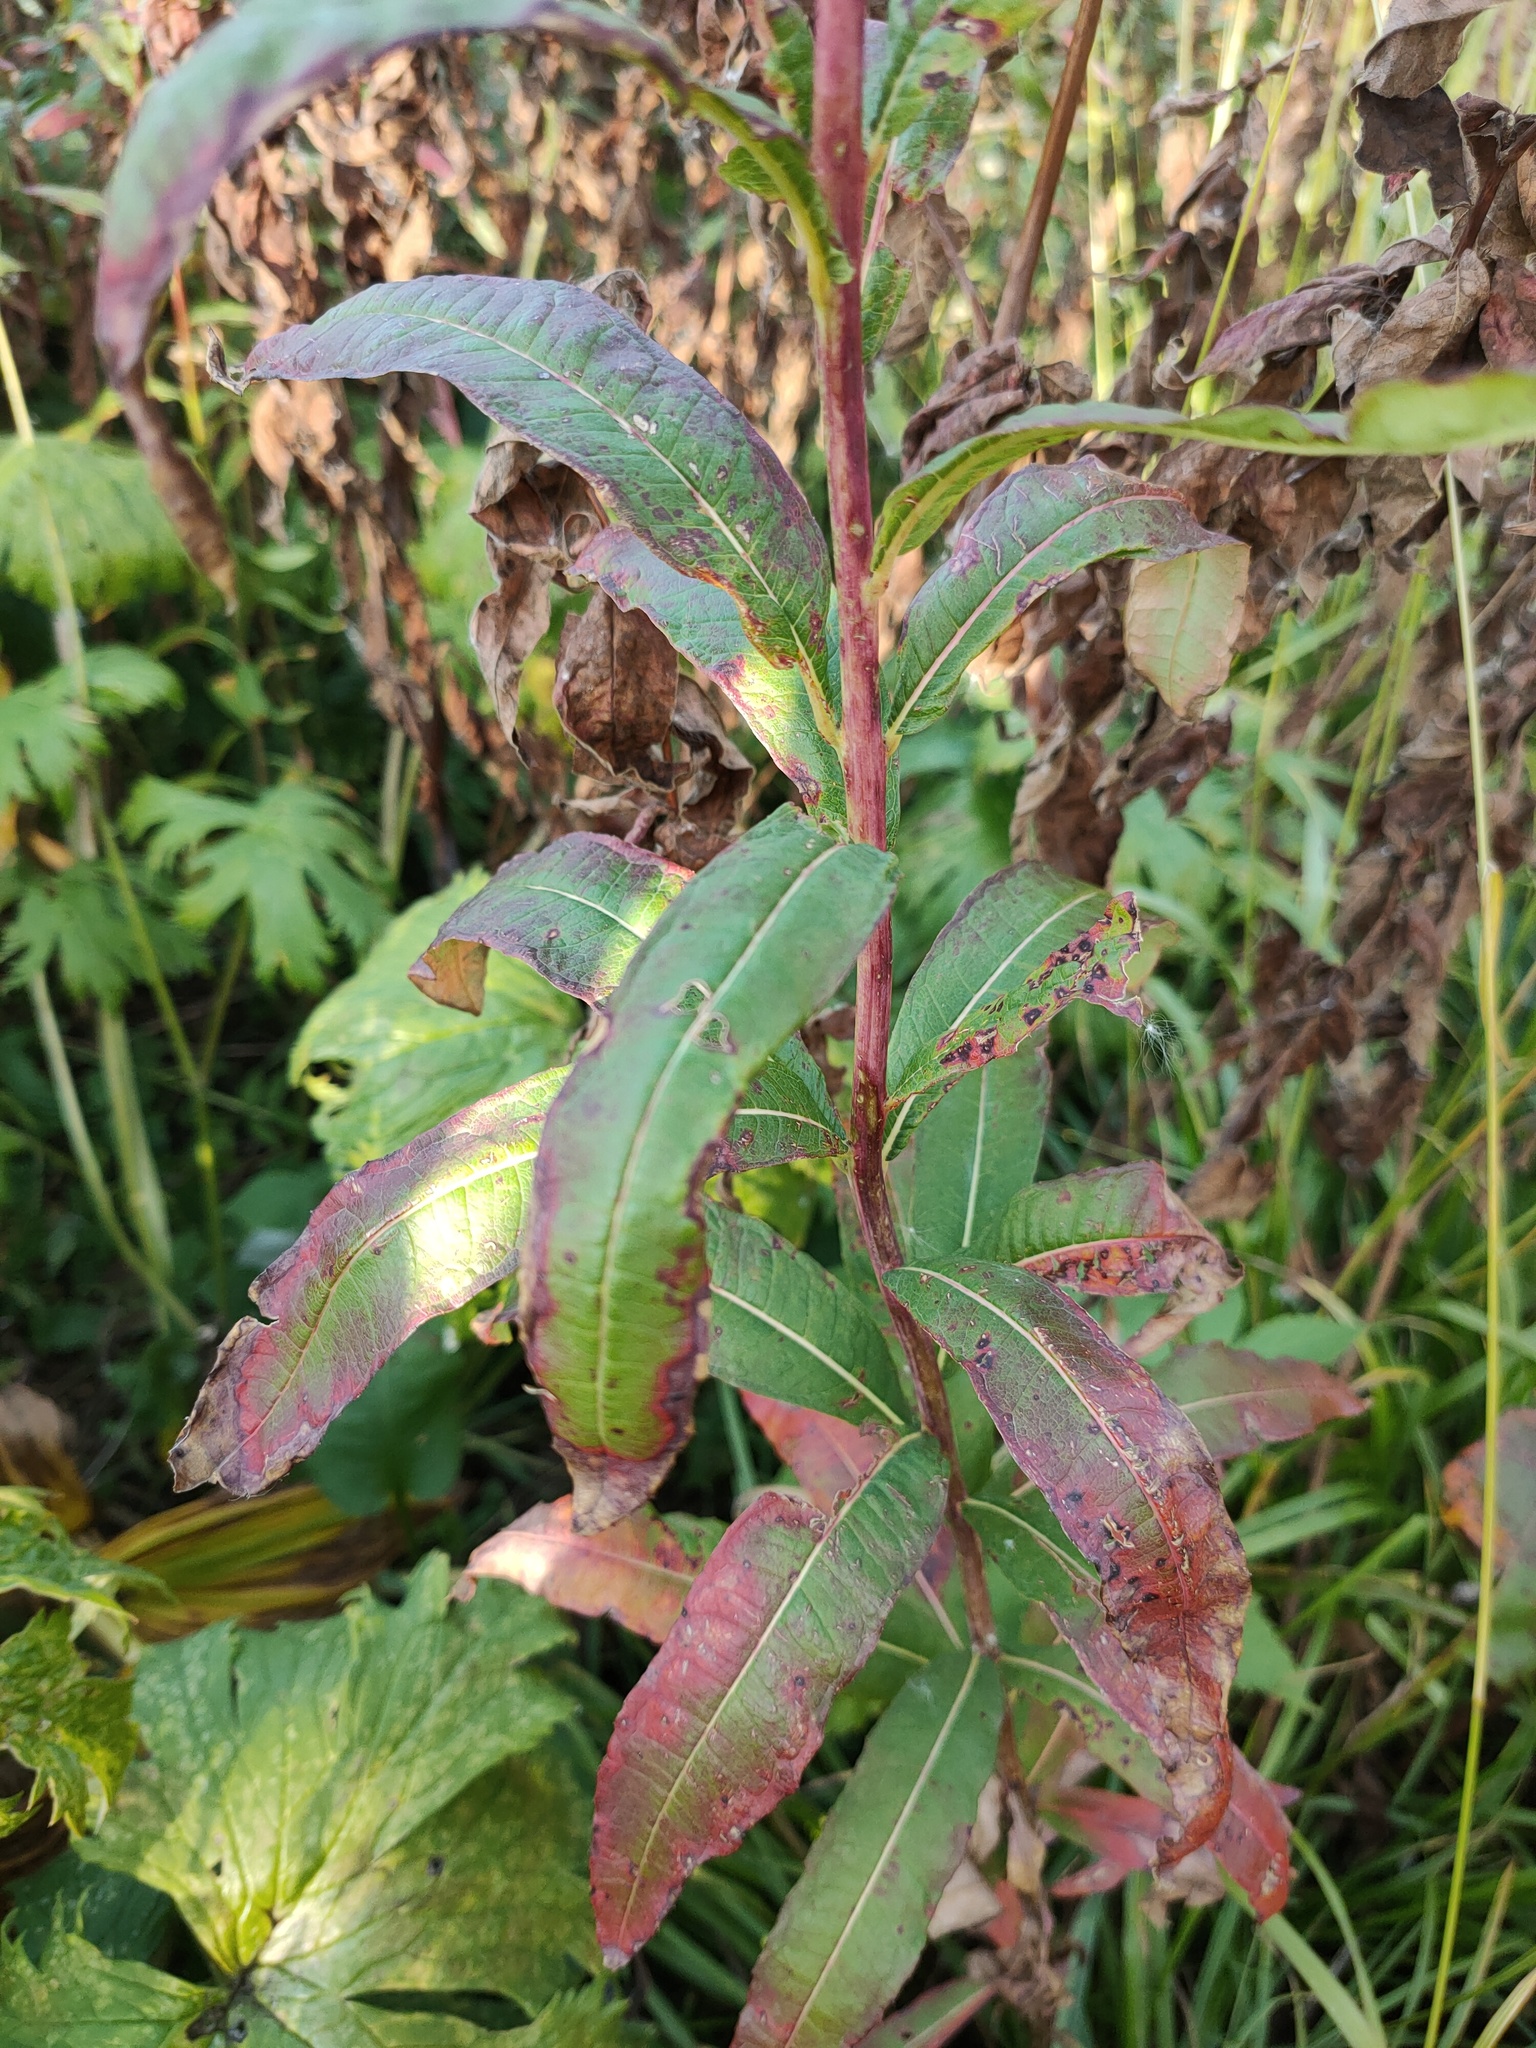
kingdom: Plantae
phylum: Tracheophyta
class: Magnoliopsida
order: Myrtales
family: Onagraceae
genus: Chamaenerion
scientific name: Chamaenerion angustifolium
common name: Fireweed
